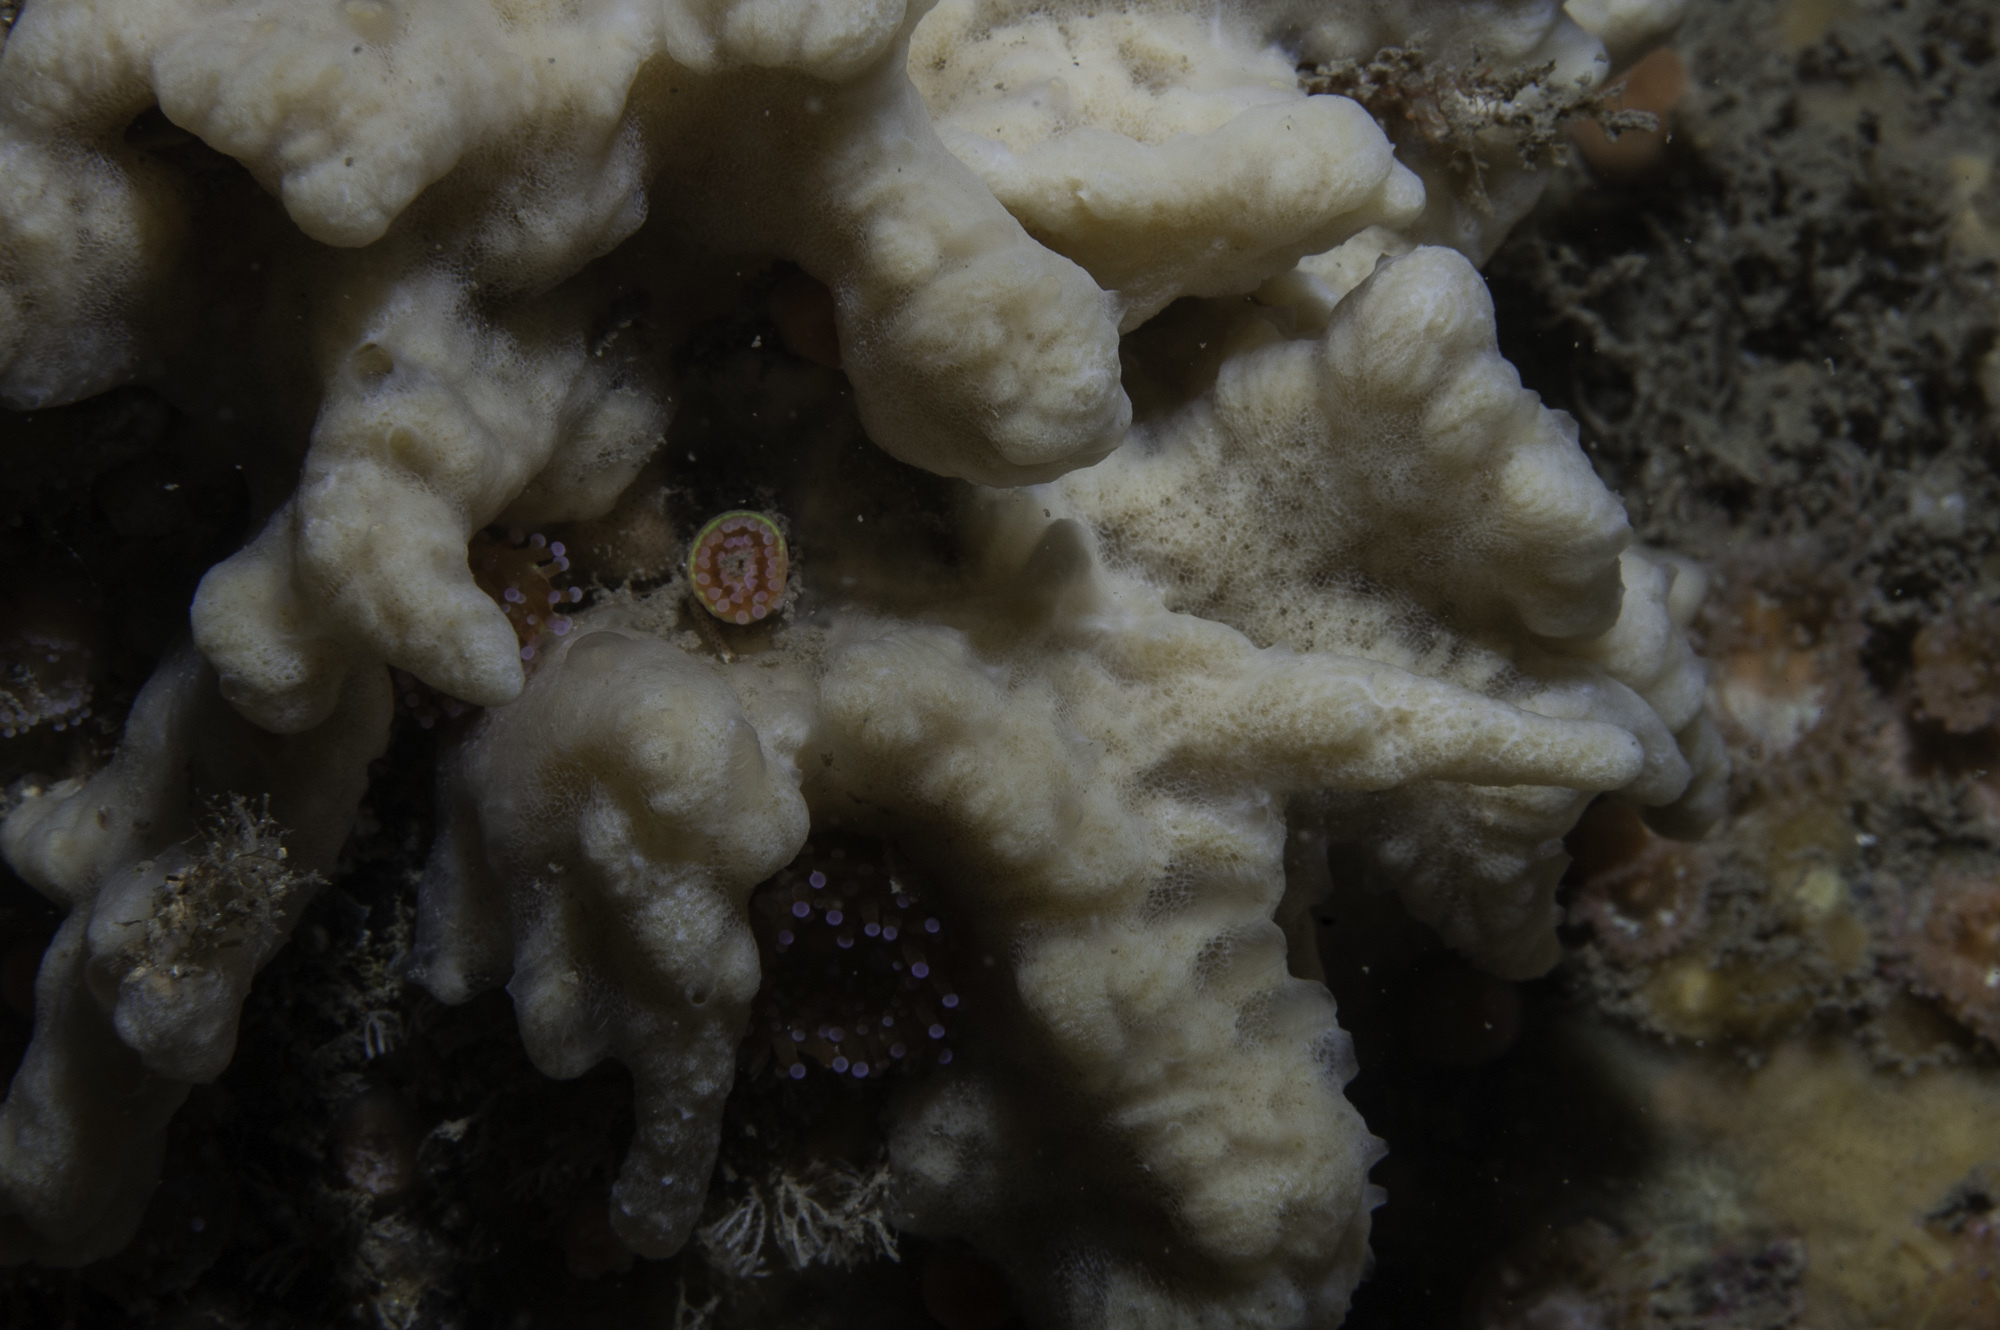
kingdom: Animalia
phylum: Porifera
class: Demospongiae
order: Poecilosclerida
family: Acarnidae
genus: Iophon
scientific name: Iophon nigricans
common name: Yellow-fingered horny sponge
